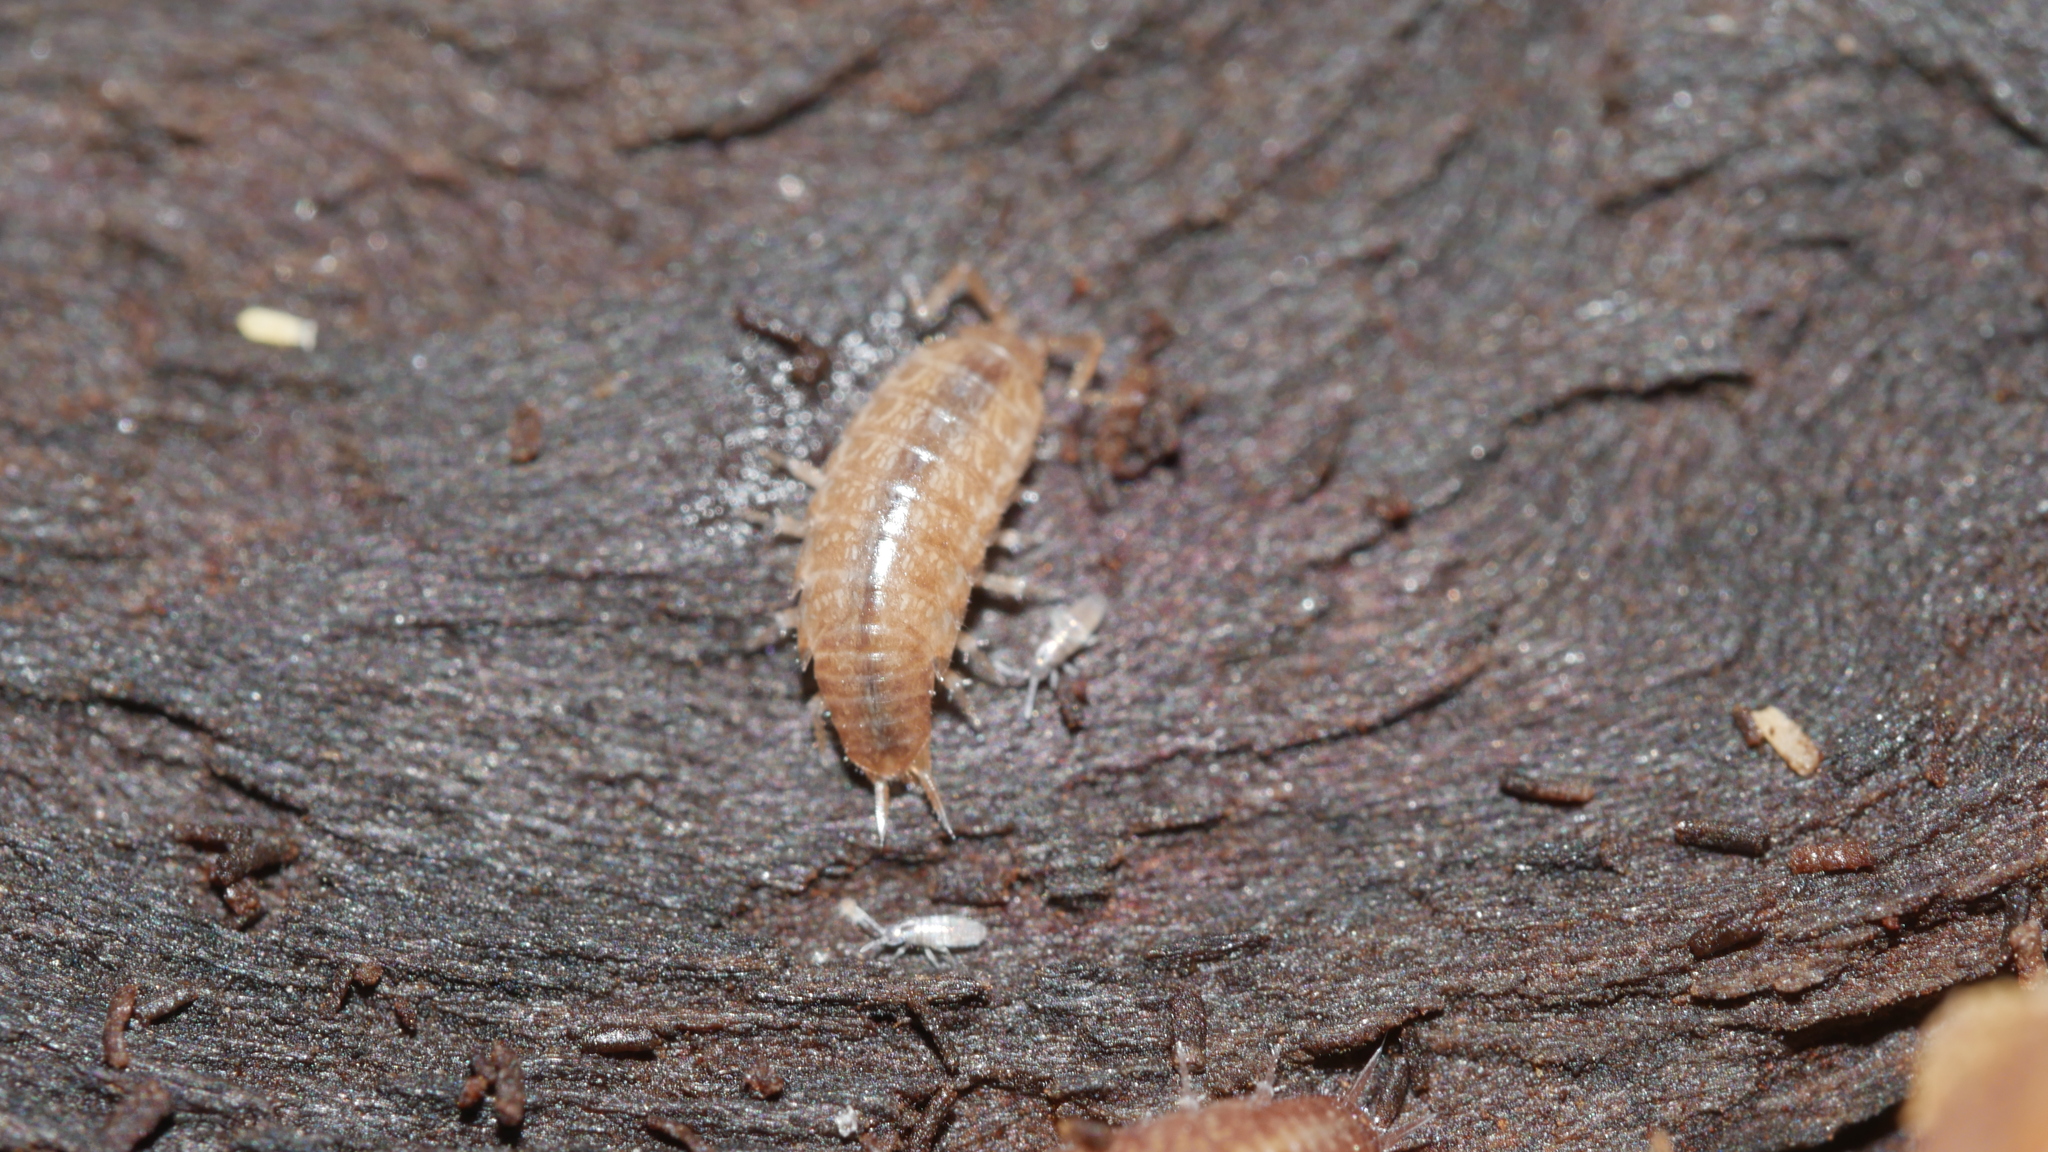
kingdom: Animalia
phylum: Arthropoda
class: Malacostraca
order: Isopoda
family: Philosciidae
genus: Chaetophiloscia
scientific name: Chaetophiloscia sicula
